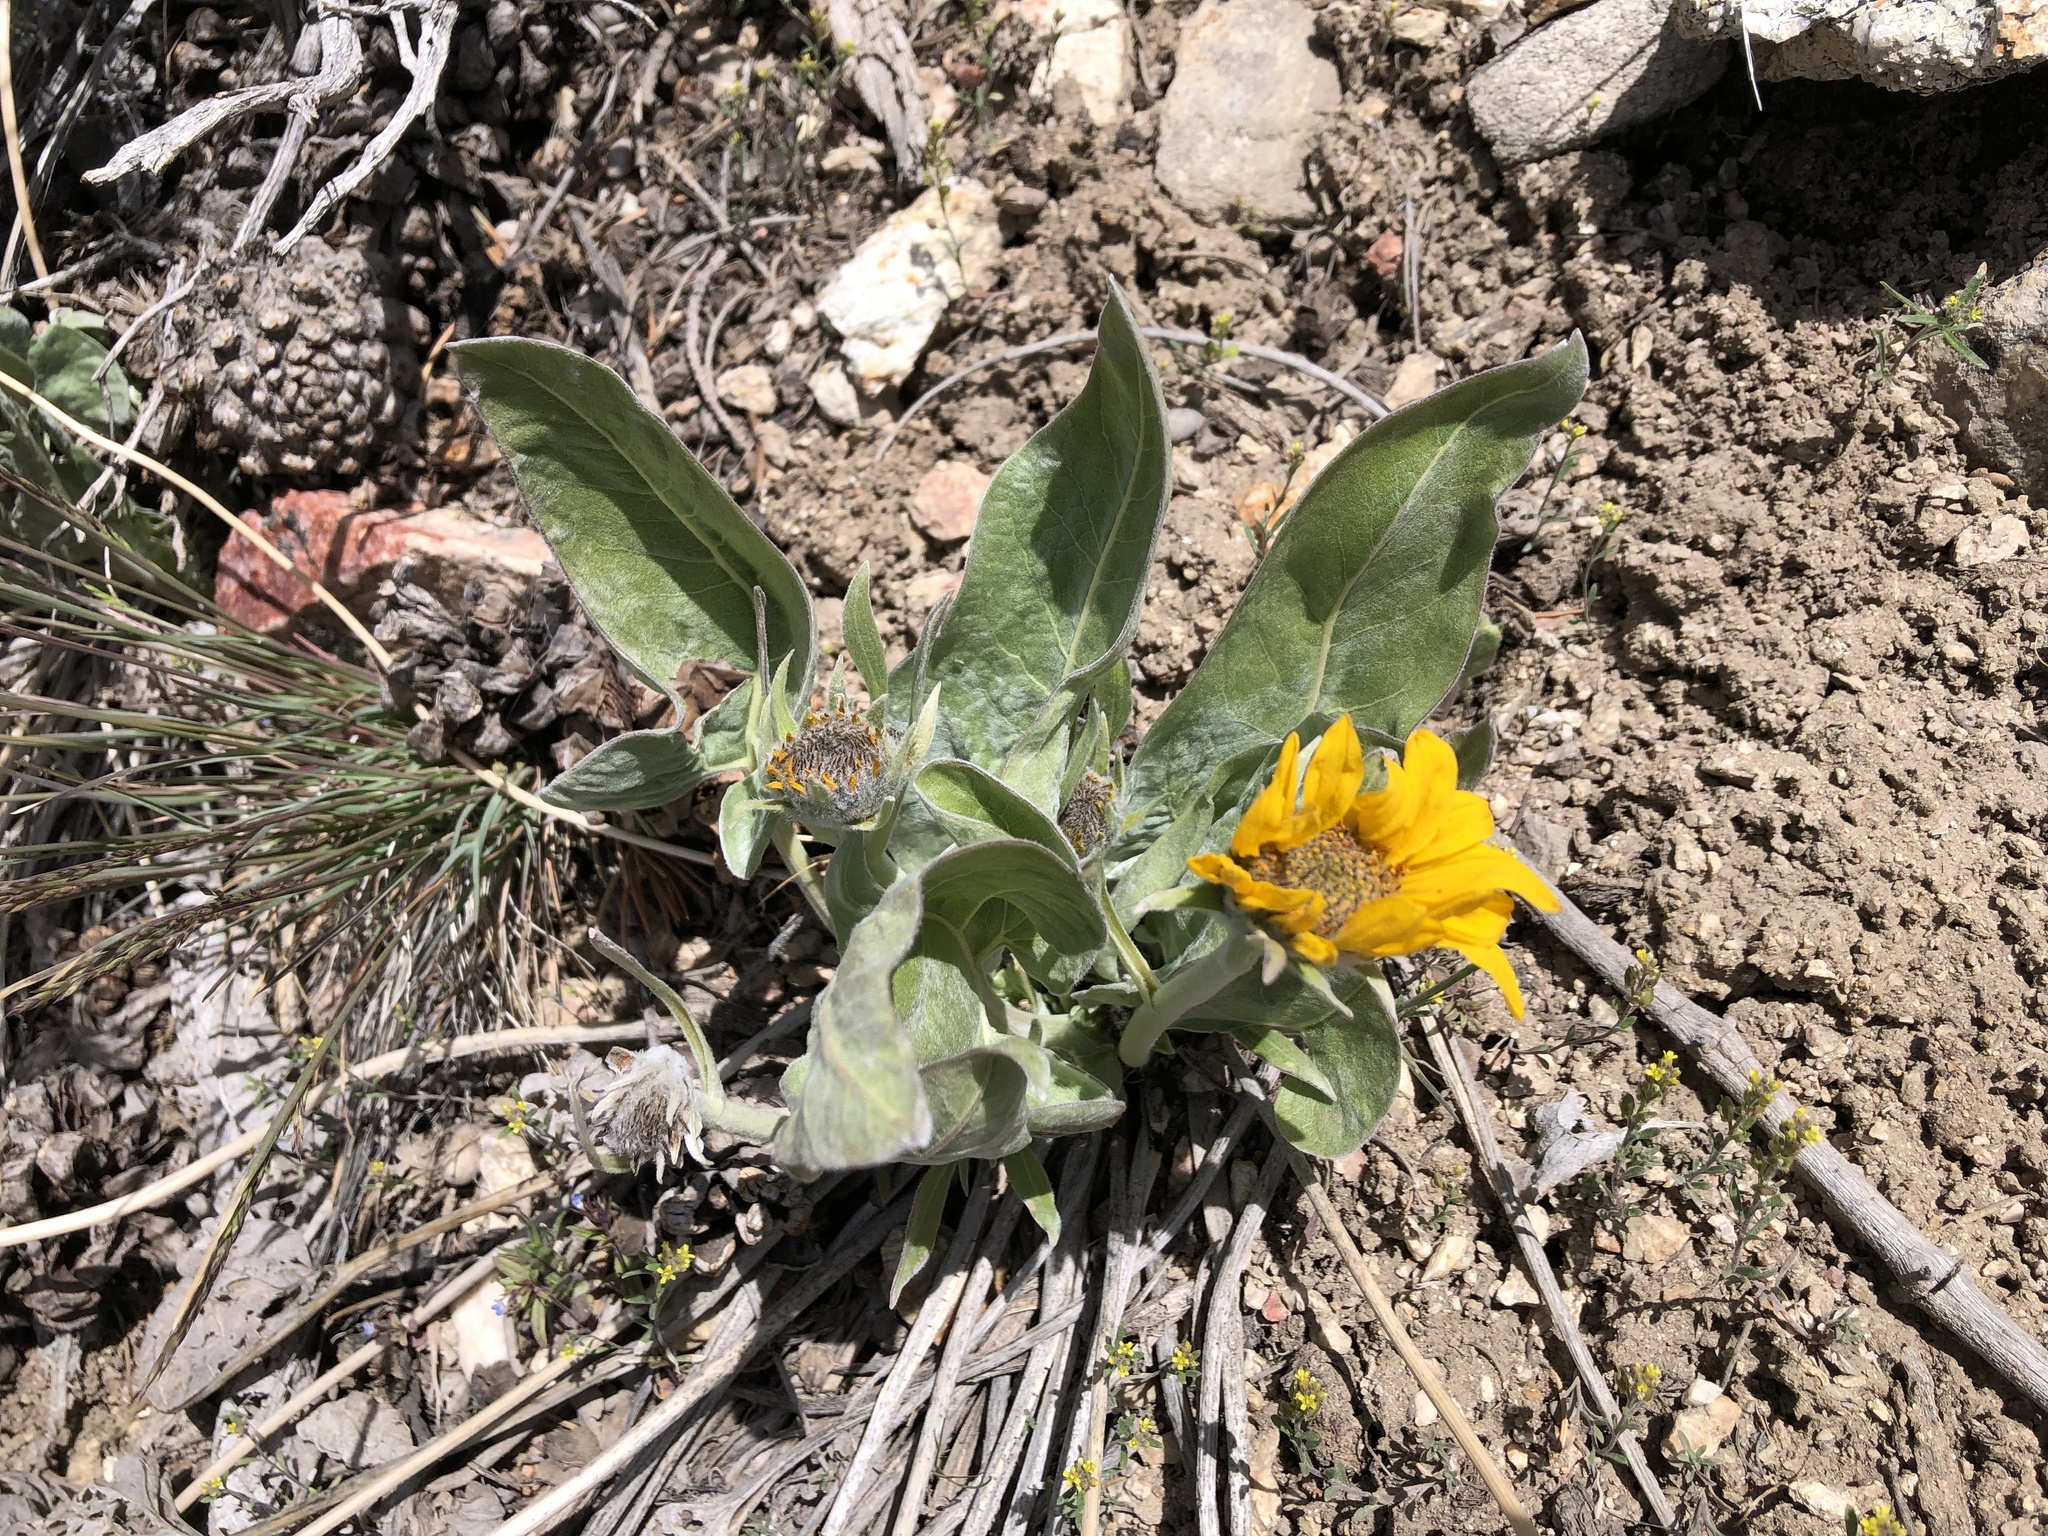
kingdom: Plantae
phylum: Tracheophyta
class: Magnoliopsida
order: Asterales
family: Asteraceae
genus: Wyethia
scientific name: Wyethia sagittata
